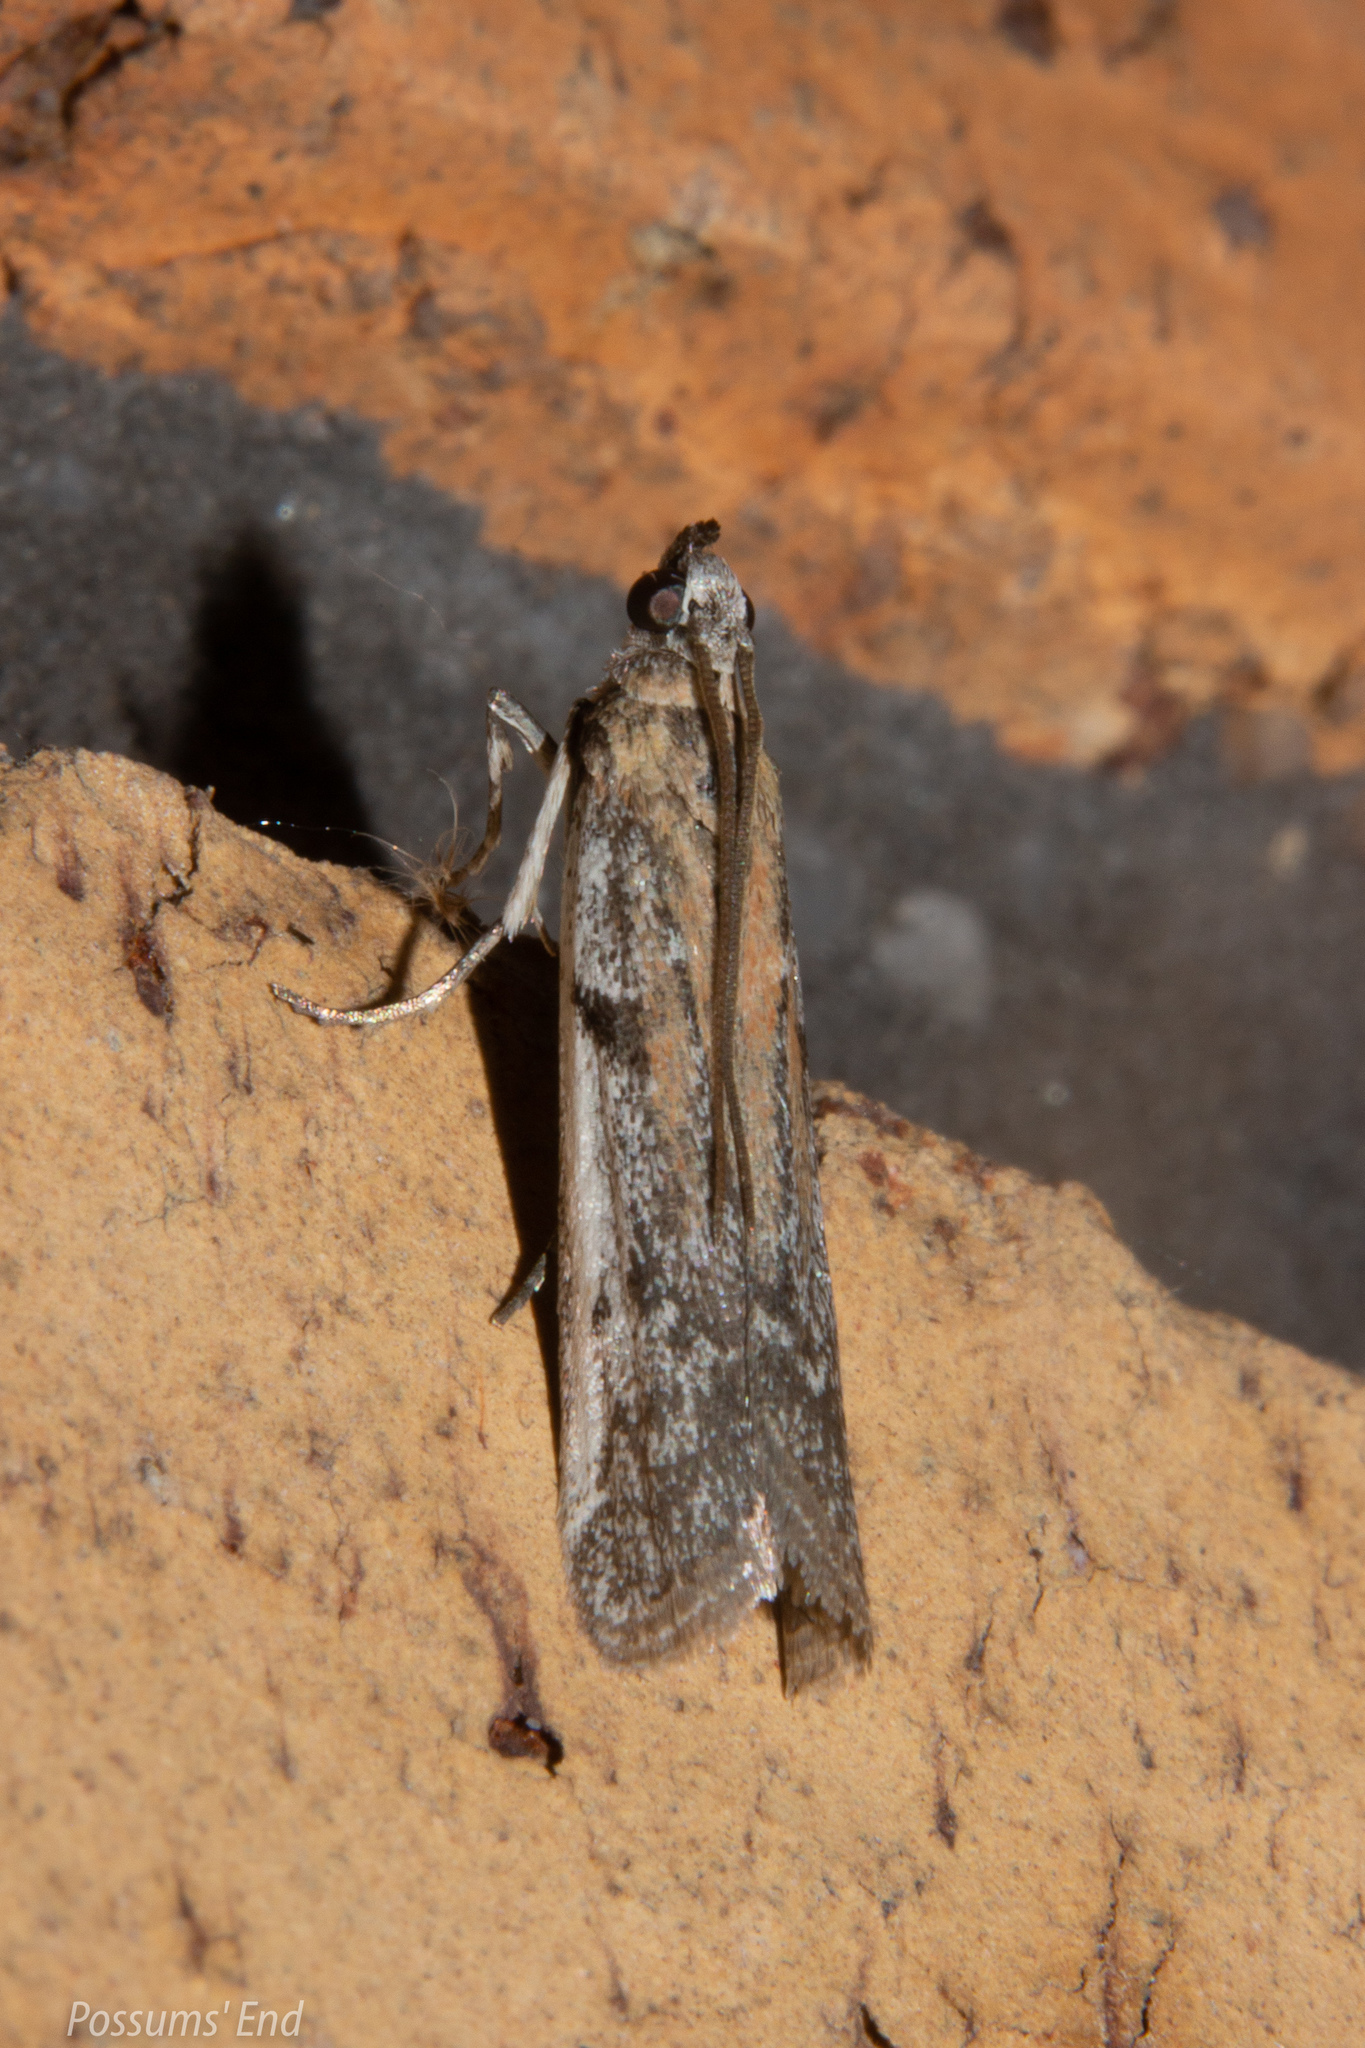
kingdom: Animalia
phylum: Arthropoda
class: Insecta
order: Lepidoptera
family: Pyralidae
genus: Patagoniodes
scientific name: Patagoniodes farinaria
